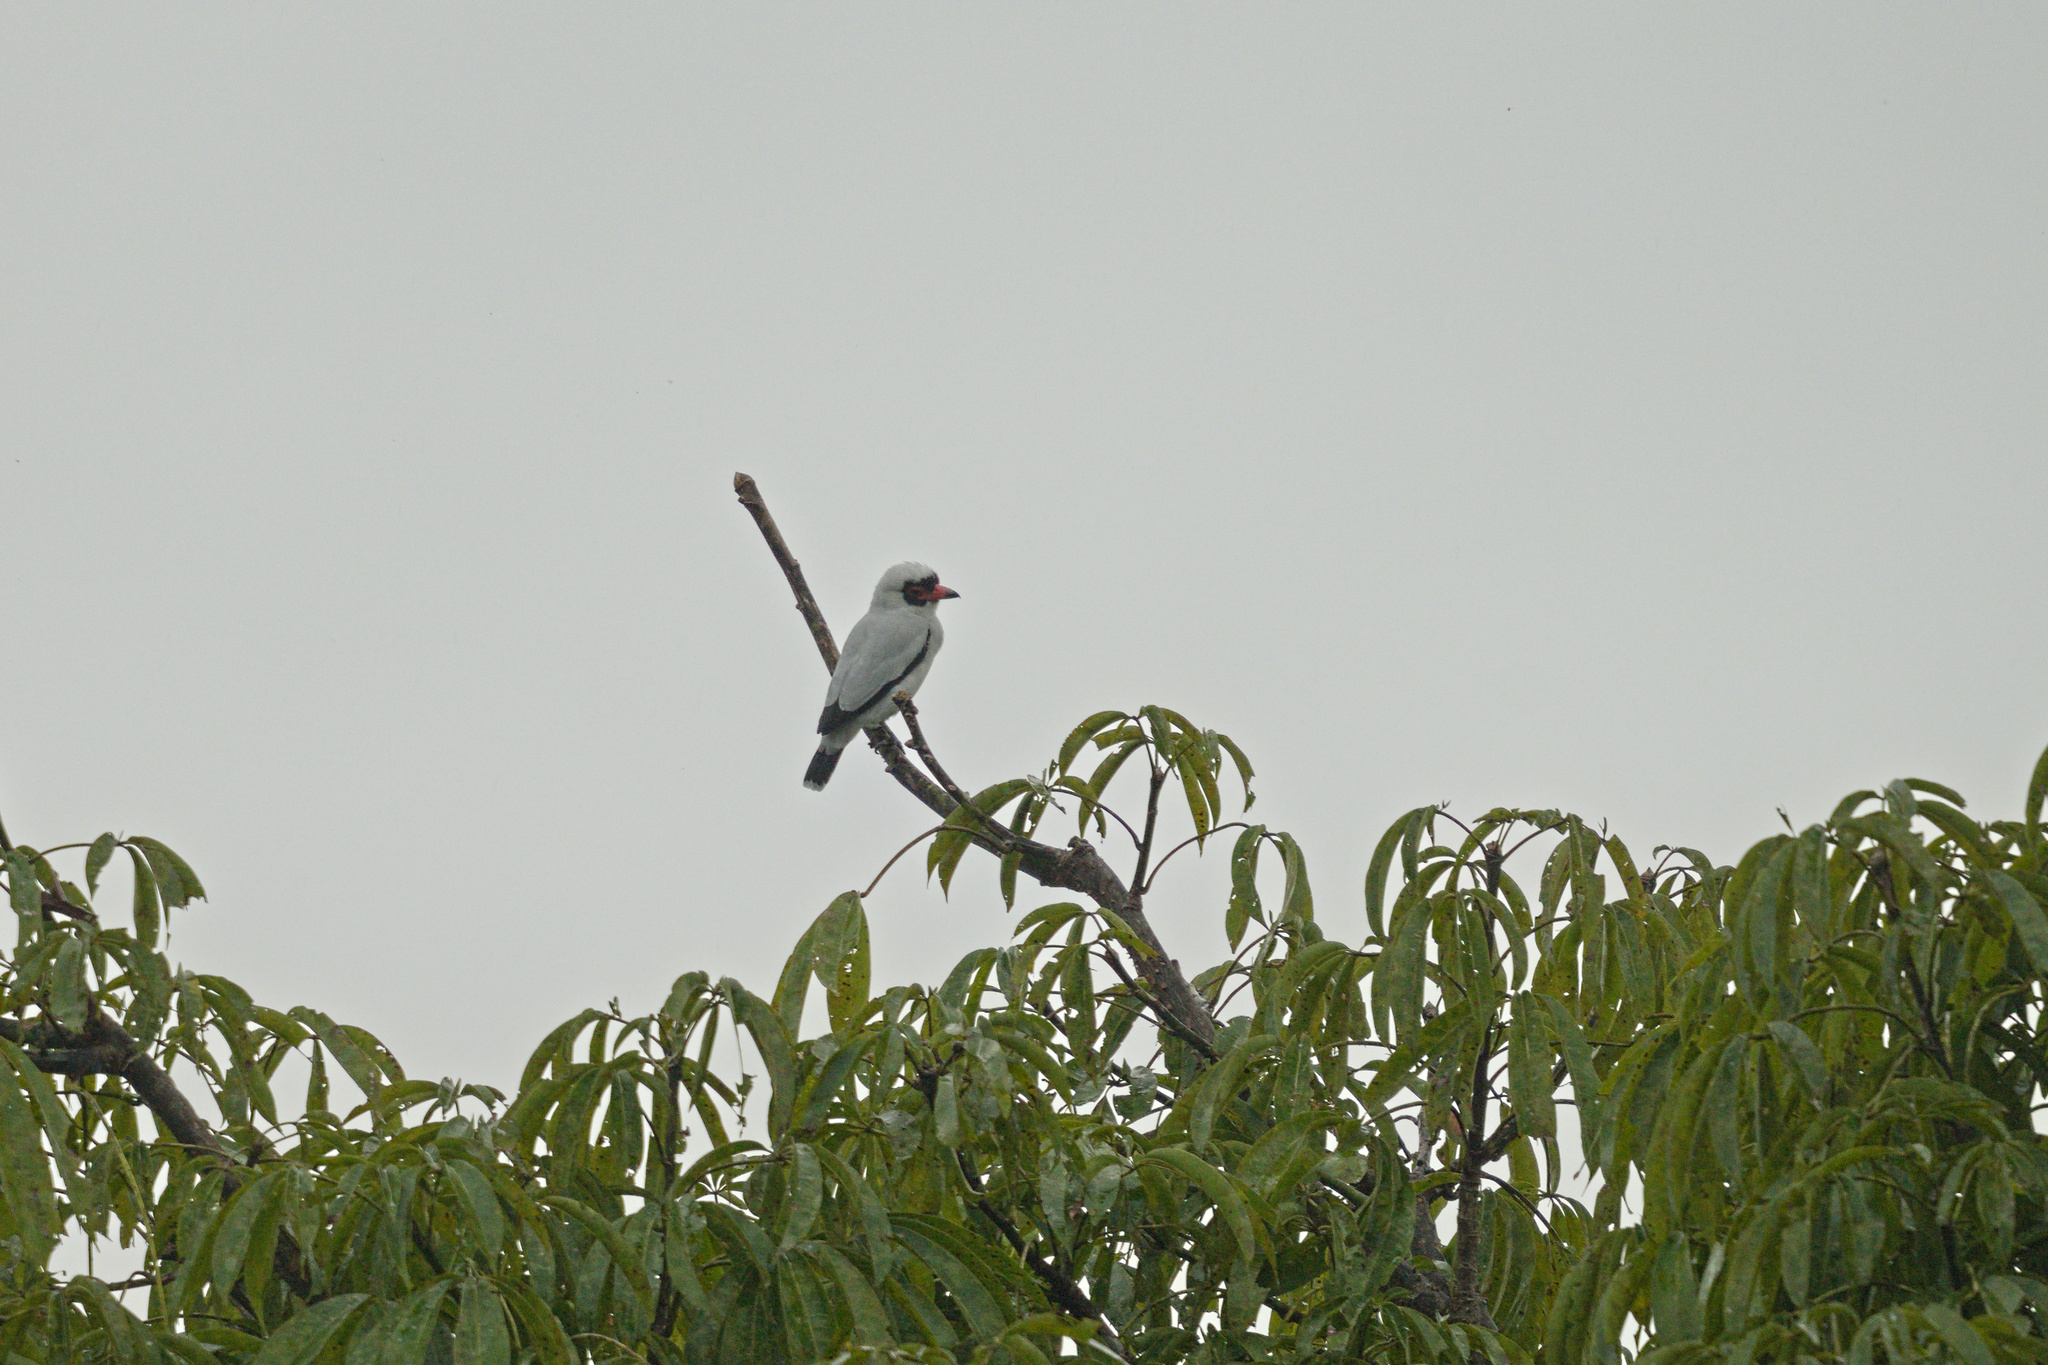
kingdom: Animalia
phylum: Chordata
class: Aves
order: Passeriformes
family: Cotingidae
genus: Tityra
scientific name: Tityra semifasciata
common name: Masked tityra
